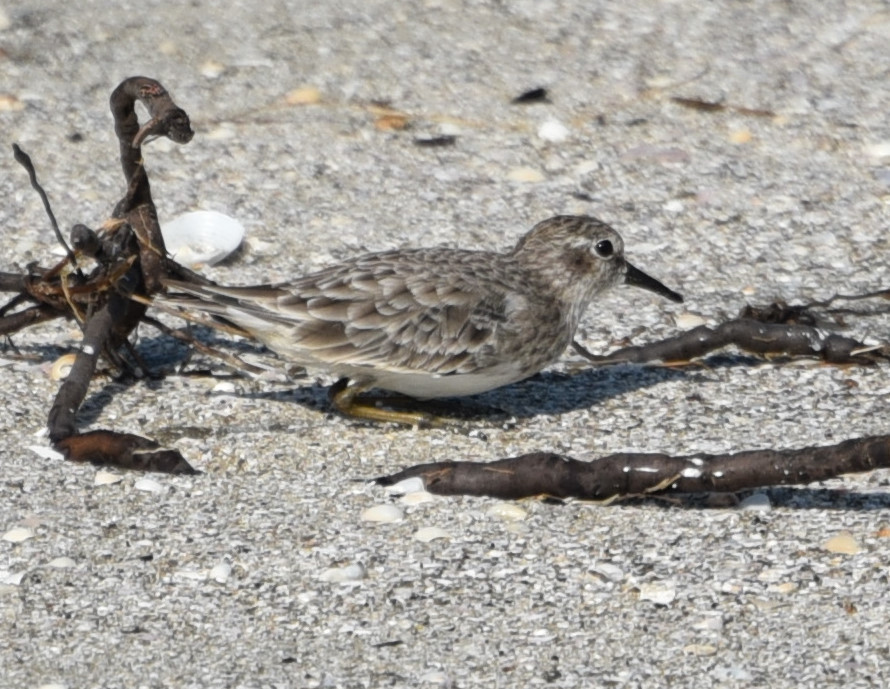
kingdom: Animalia
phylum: Chordata
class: Aves
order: Charadriiformes
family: Scolopacidae
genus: Calidris
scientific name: Calidris minutilla
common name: Least sandpiper
